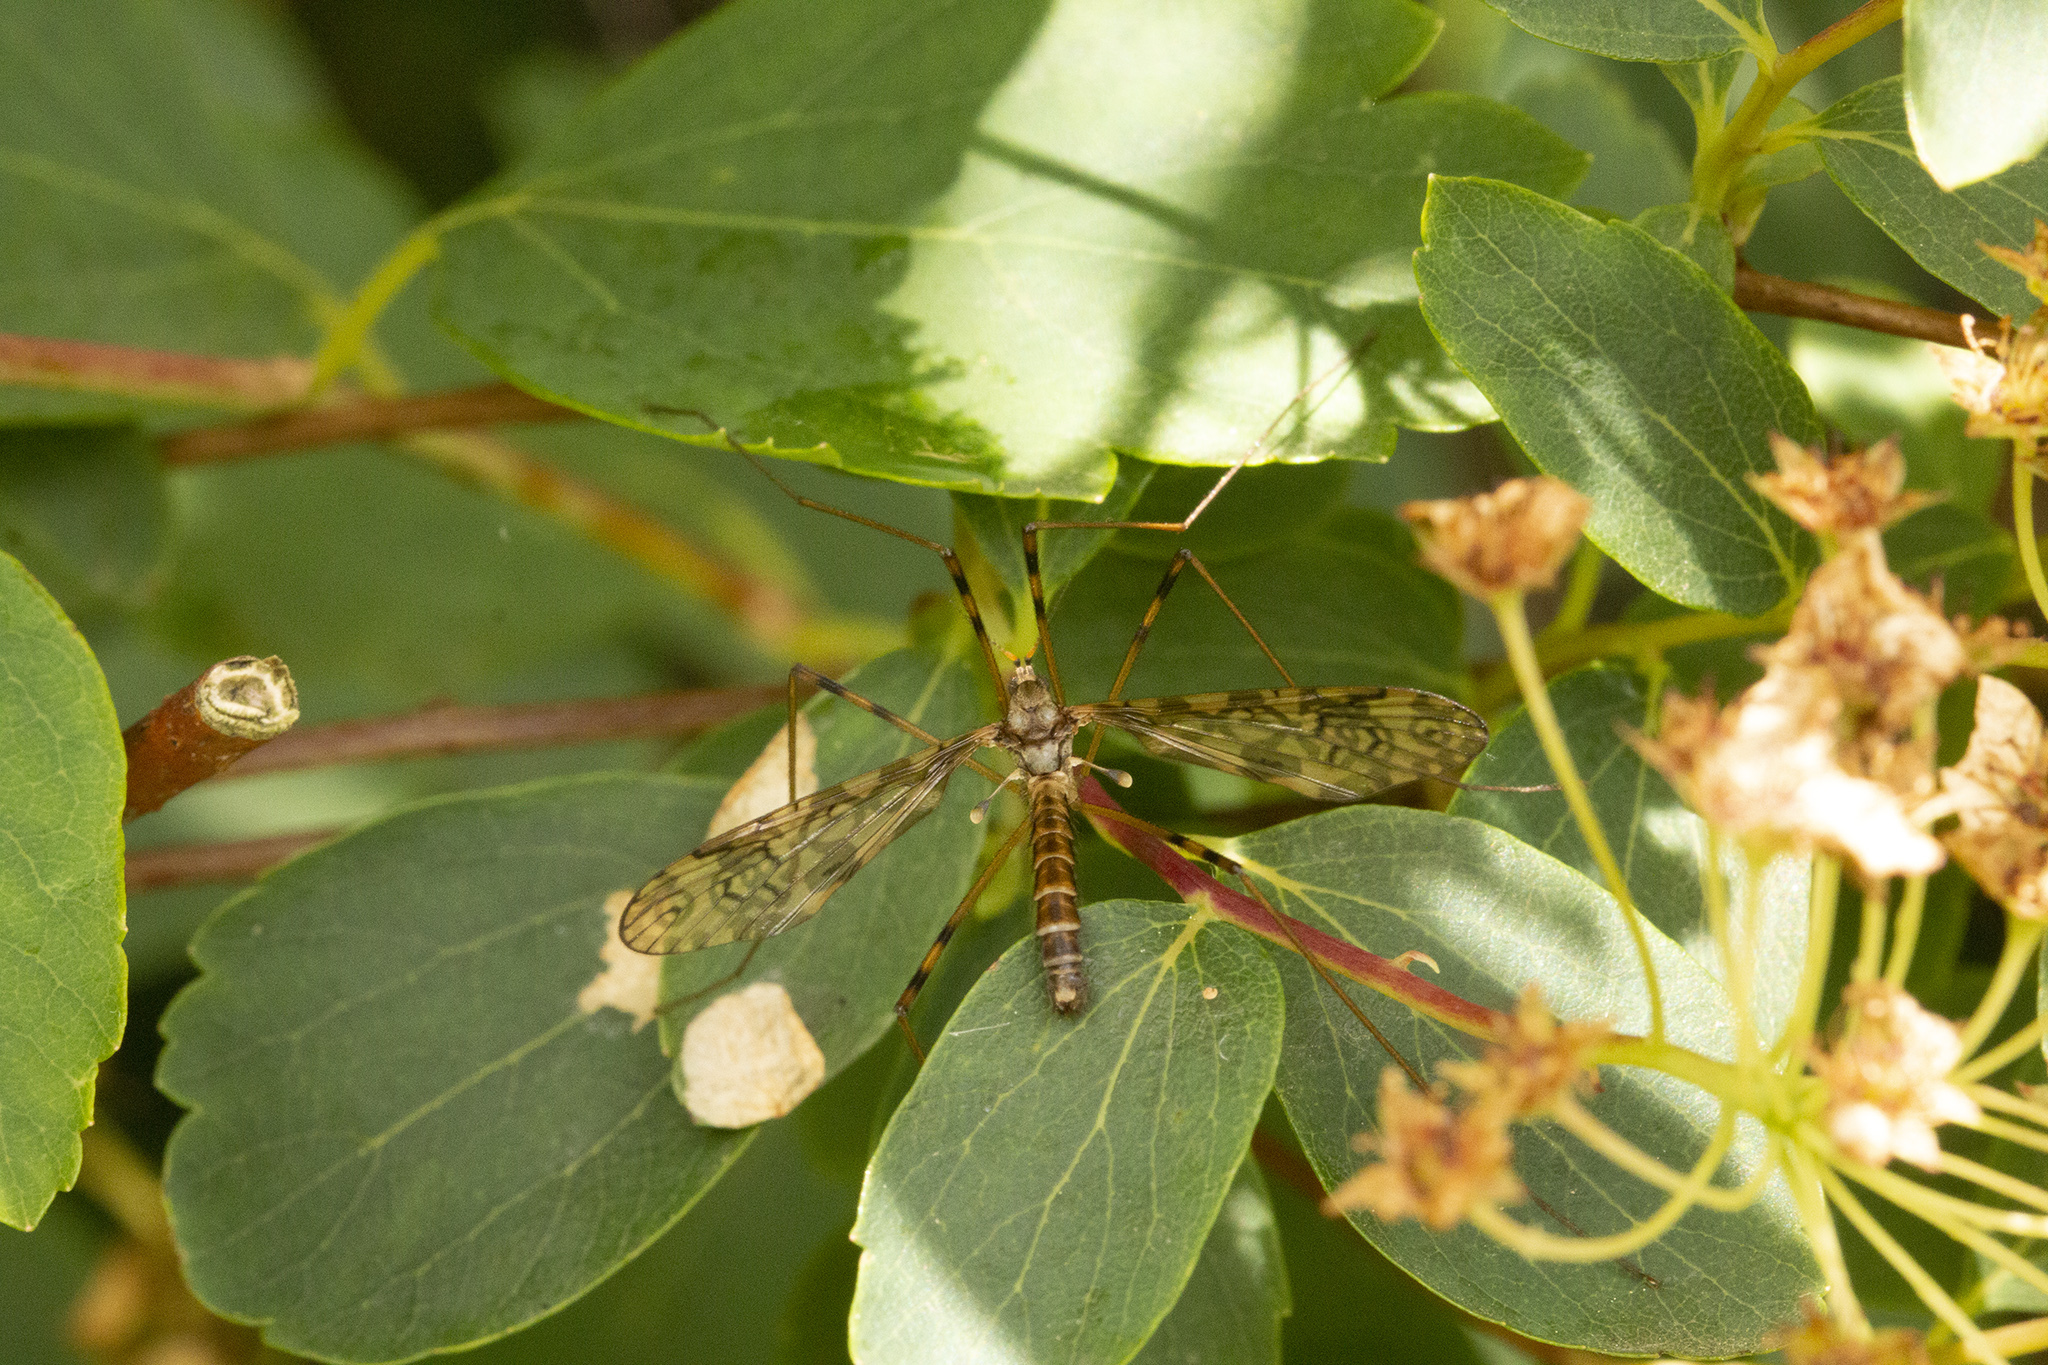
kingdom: Animalia
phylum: Arthropoda
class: Insecta
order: Diptera
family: Limoniidae
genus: Epiphragma
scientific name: Epiphragma ocellare
